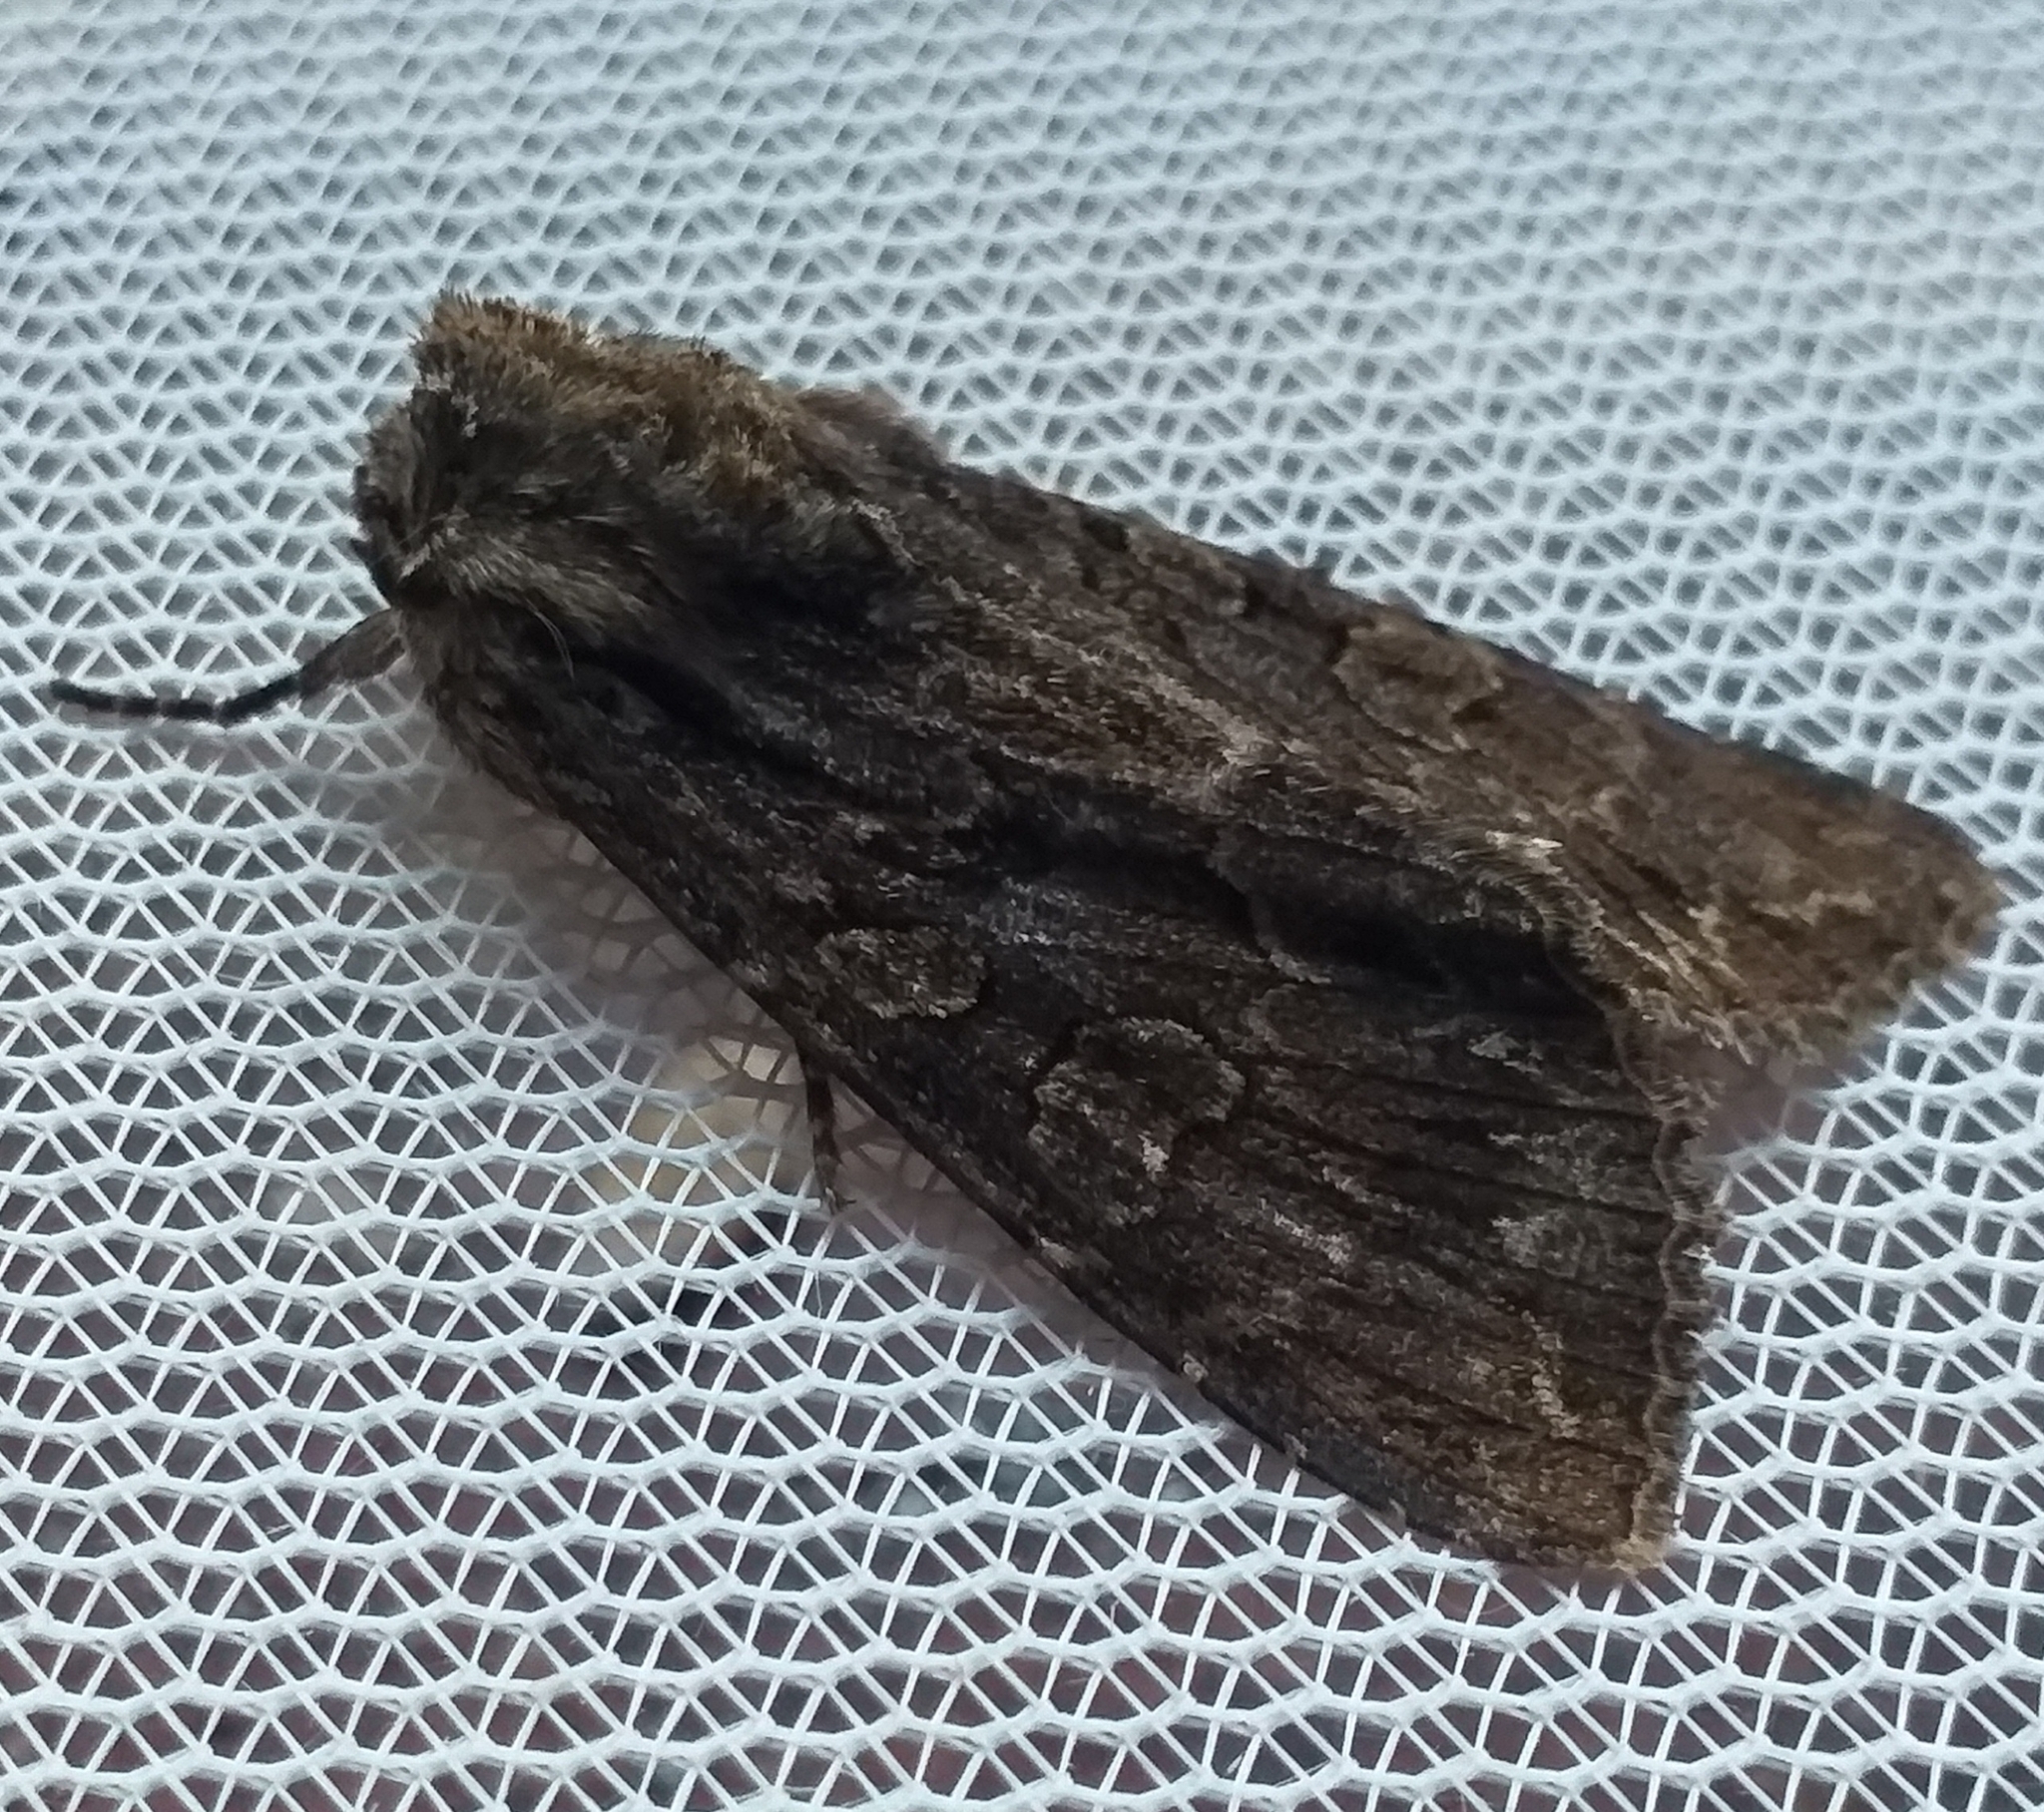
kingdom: Animalia
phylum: Arthropoda
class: Insecta
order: Lepidoptera
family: Noctuidae
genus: Apamea
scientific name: Apamea monoglypha
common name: Dark arches
